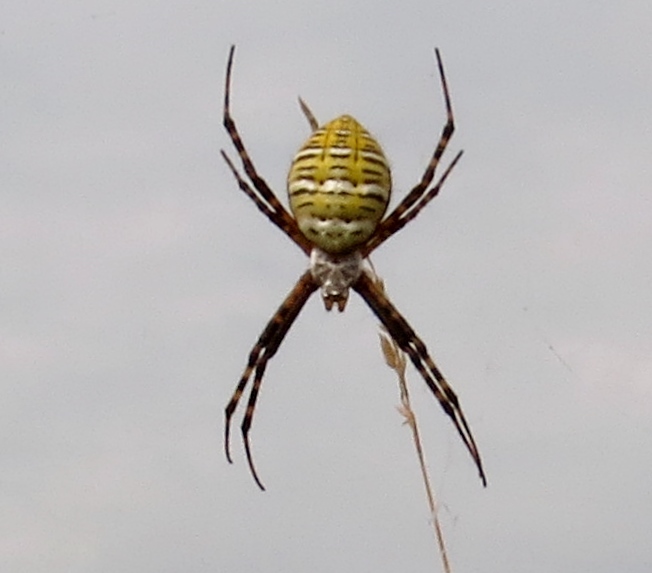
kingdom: Animalia
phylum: Arthropoda
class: Arachnida
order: Araneae
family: Araneidae
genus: Argiope
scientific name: Argiope trifasciata
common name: Banded garden spider
